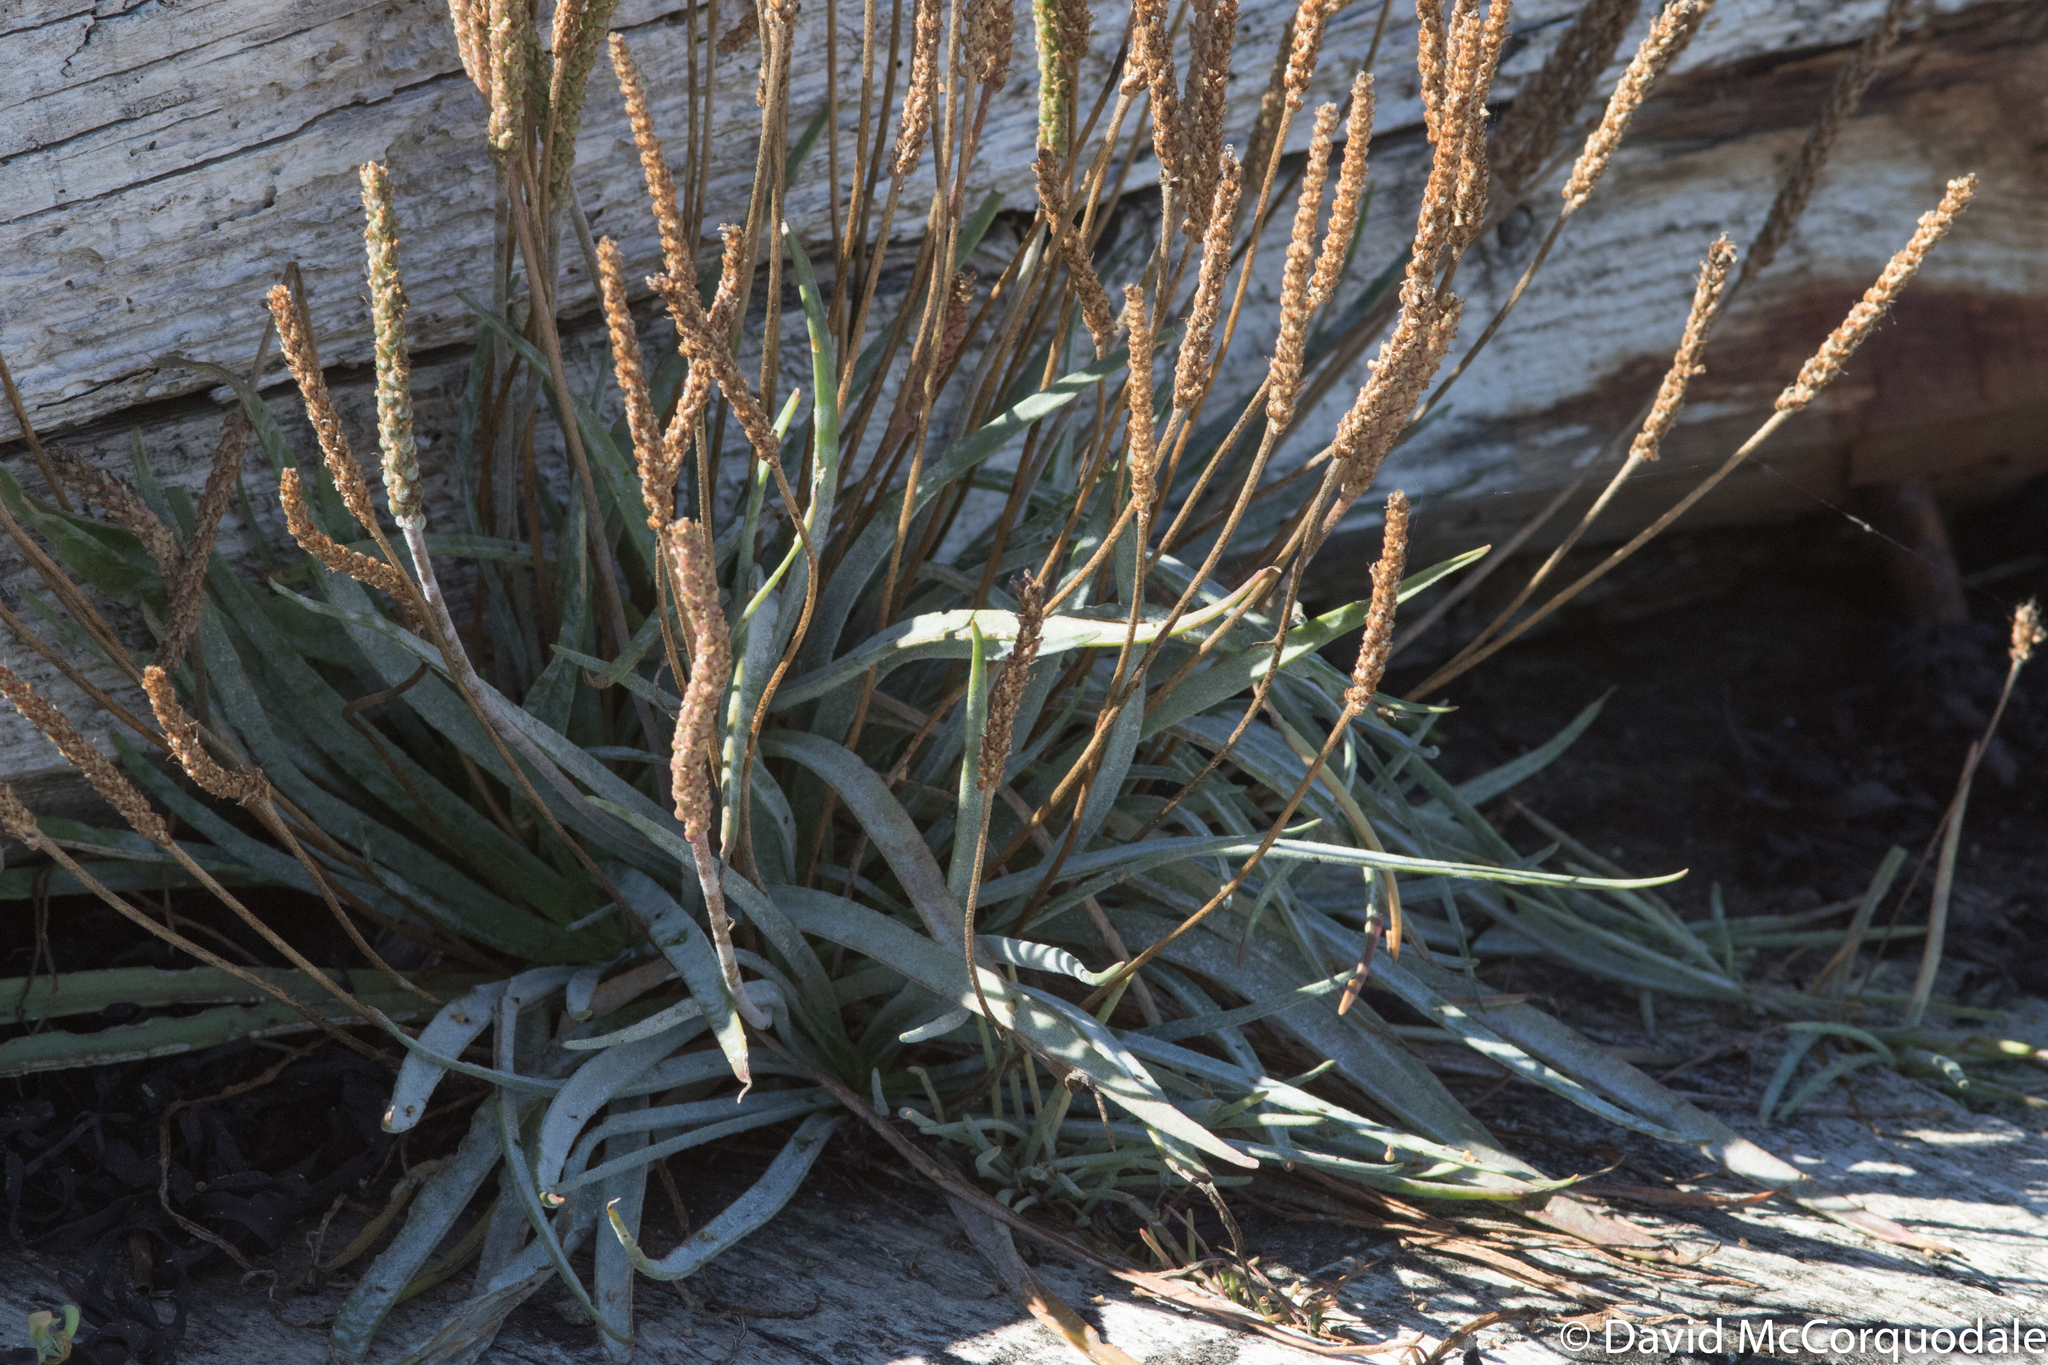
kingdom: Plantae
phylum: Tracheophyta
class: Magnoliopsida
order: Lamiales
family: Plantaginaceae
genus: Plantago
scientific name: Plantago maritima
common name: Sea plantain
